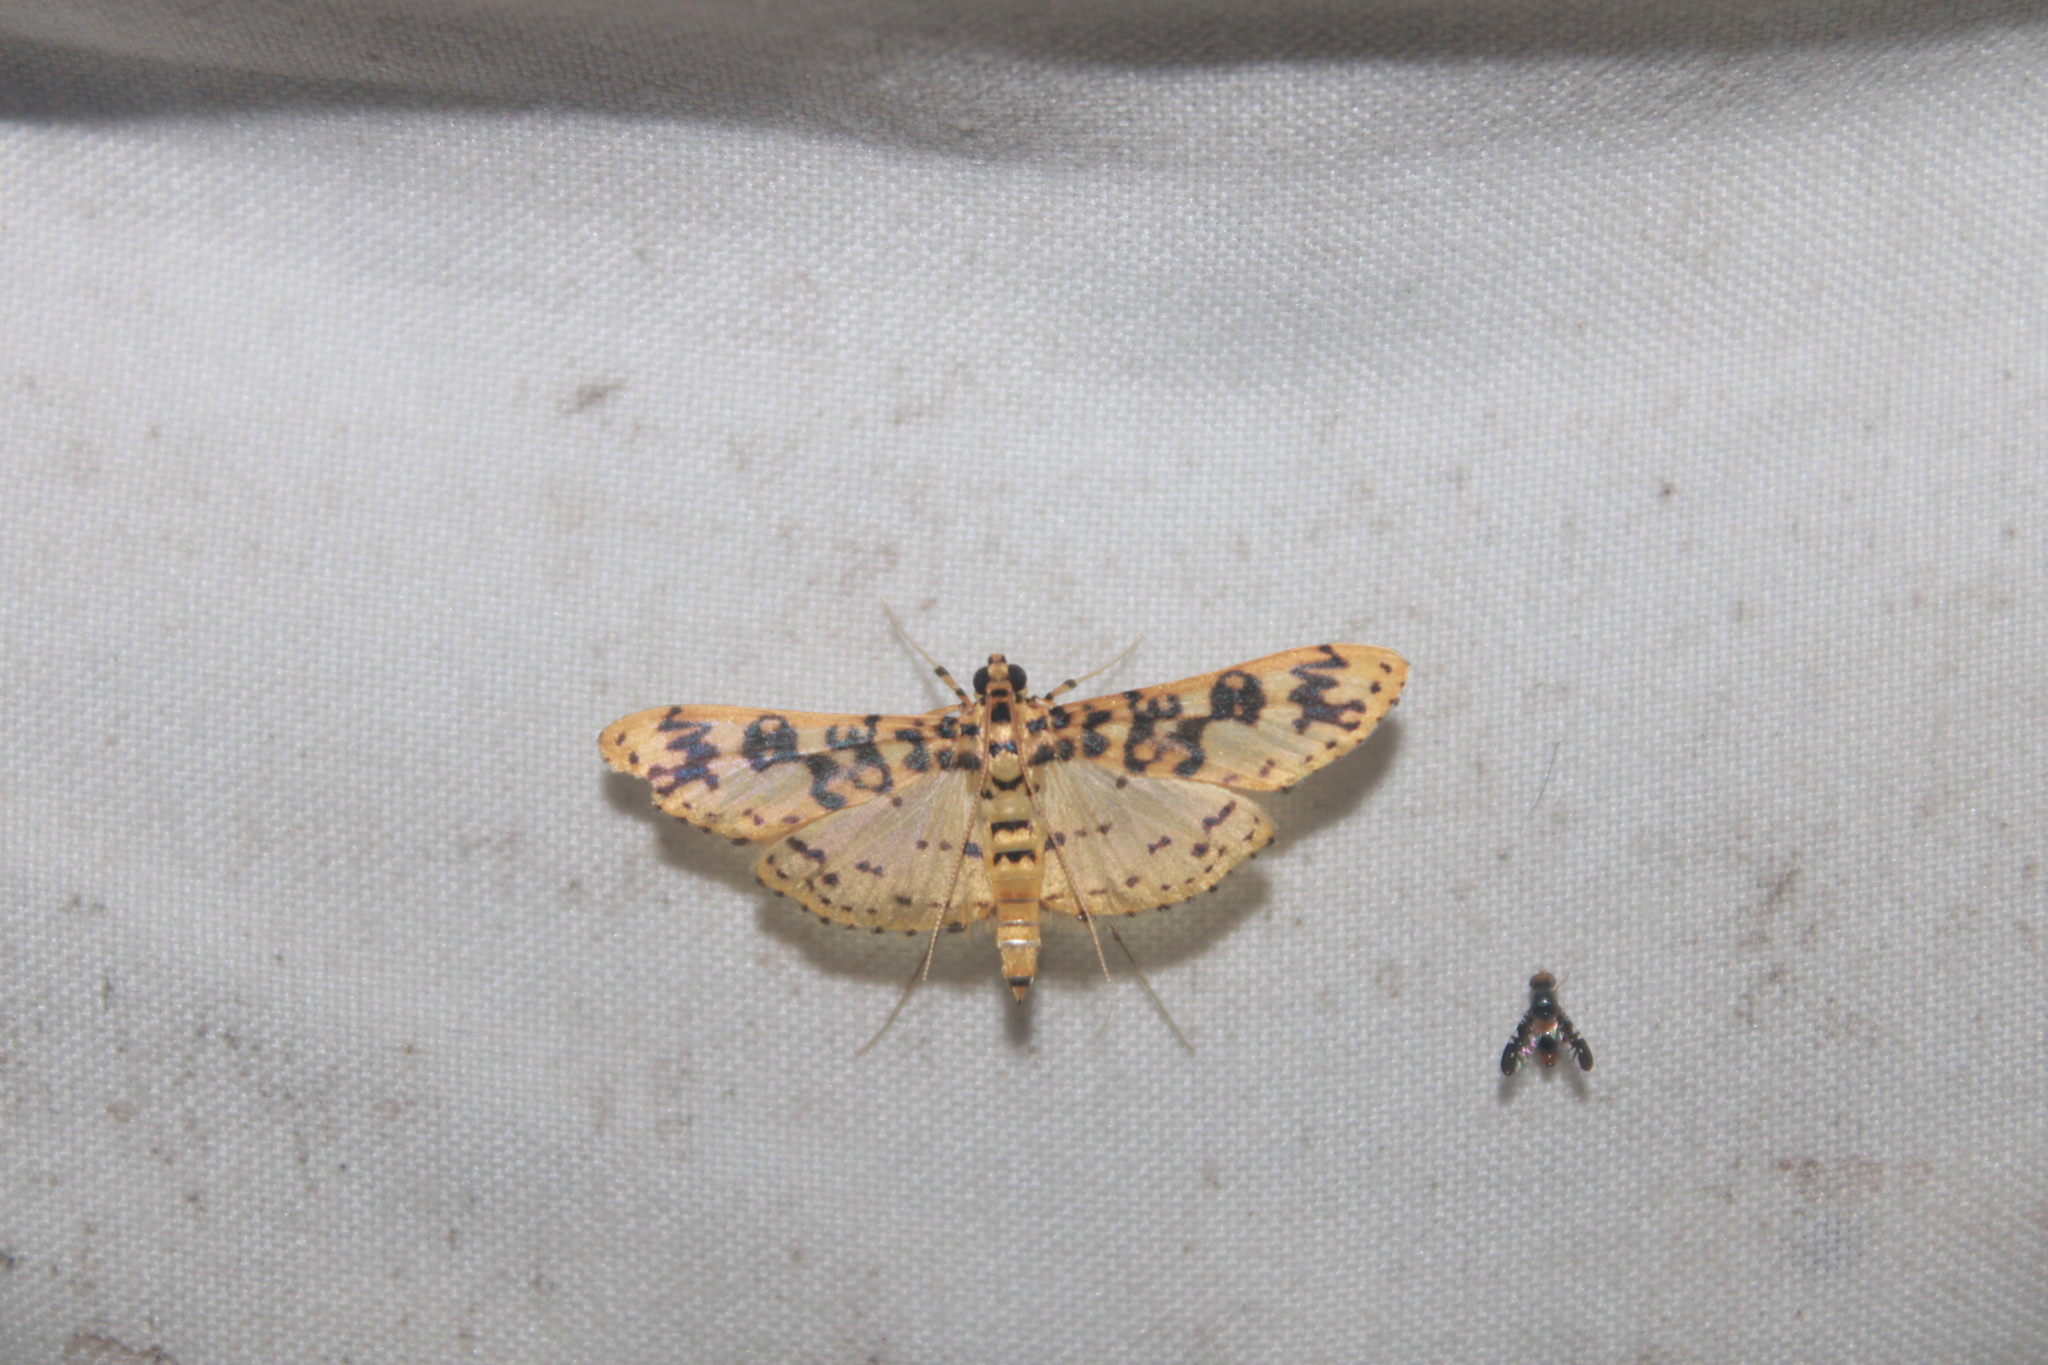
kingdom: Animalia
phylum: Arthropoda
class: Insecta
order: Lepidoptera
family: Crambidae
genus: Asturodes
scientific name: Asturodes fimbriauralis
